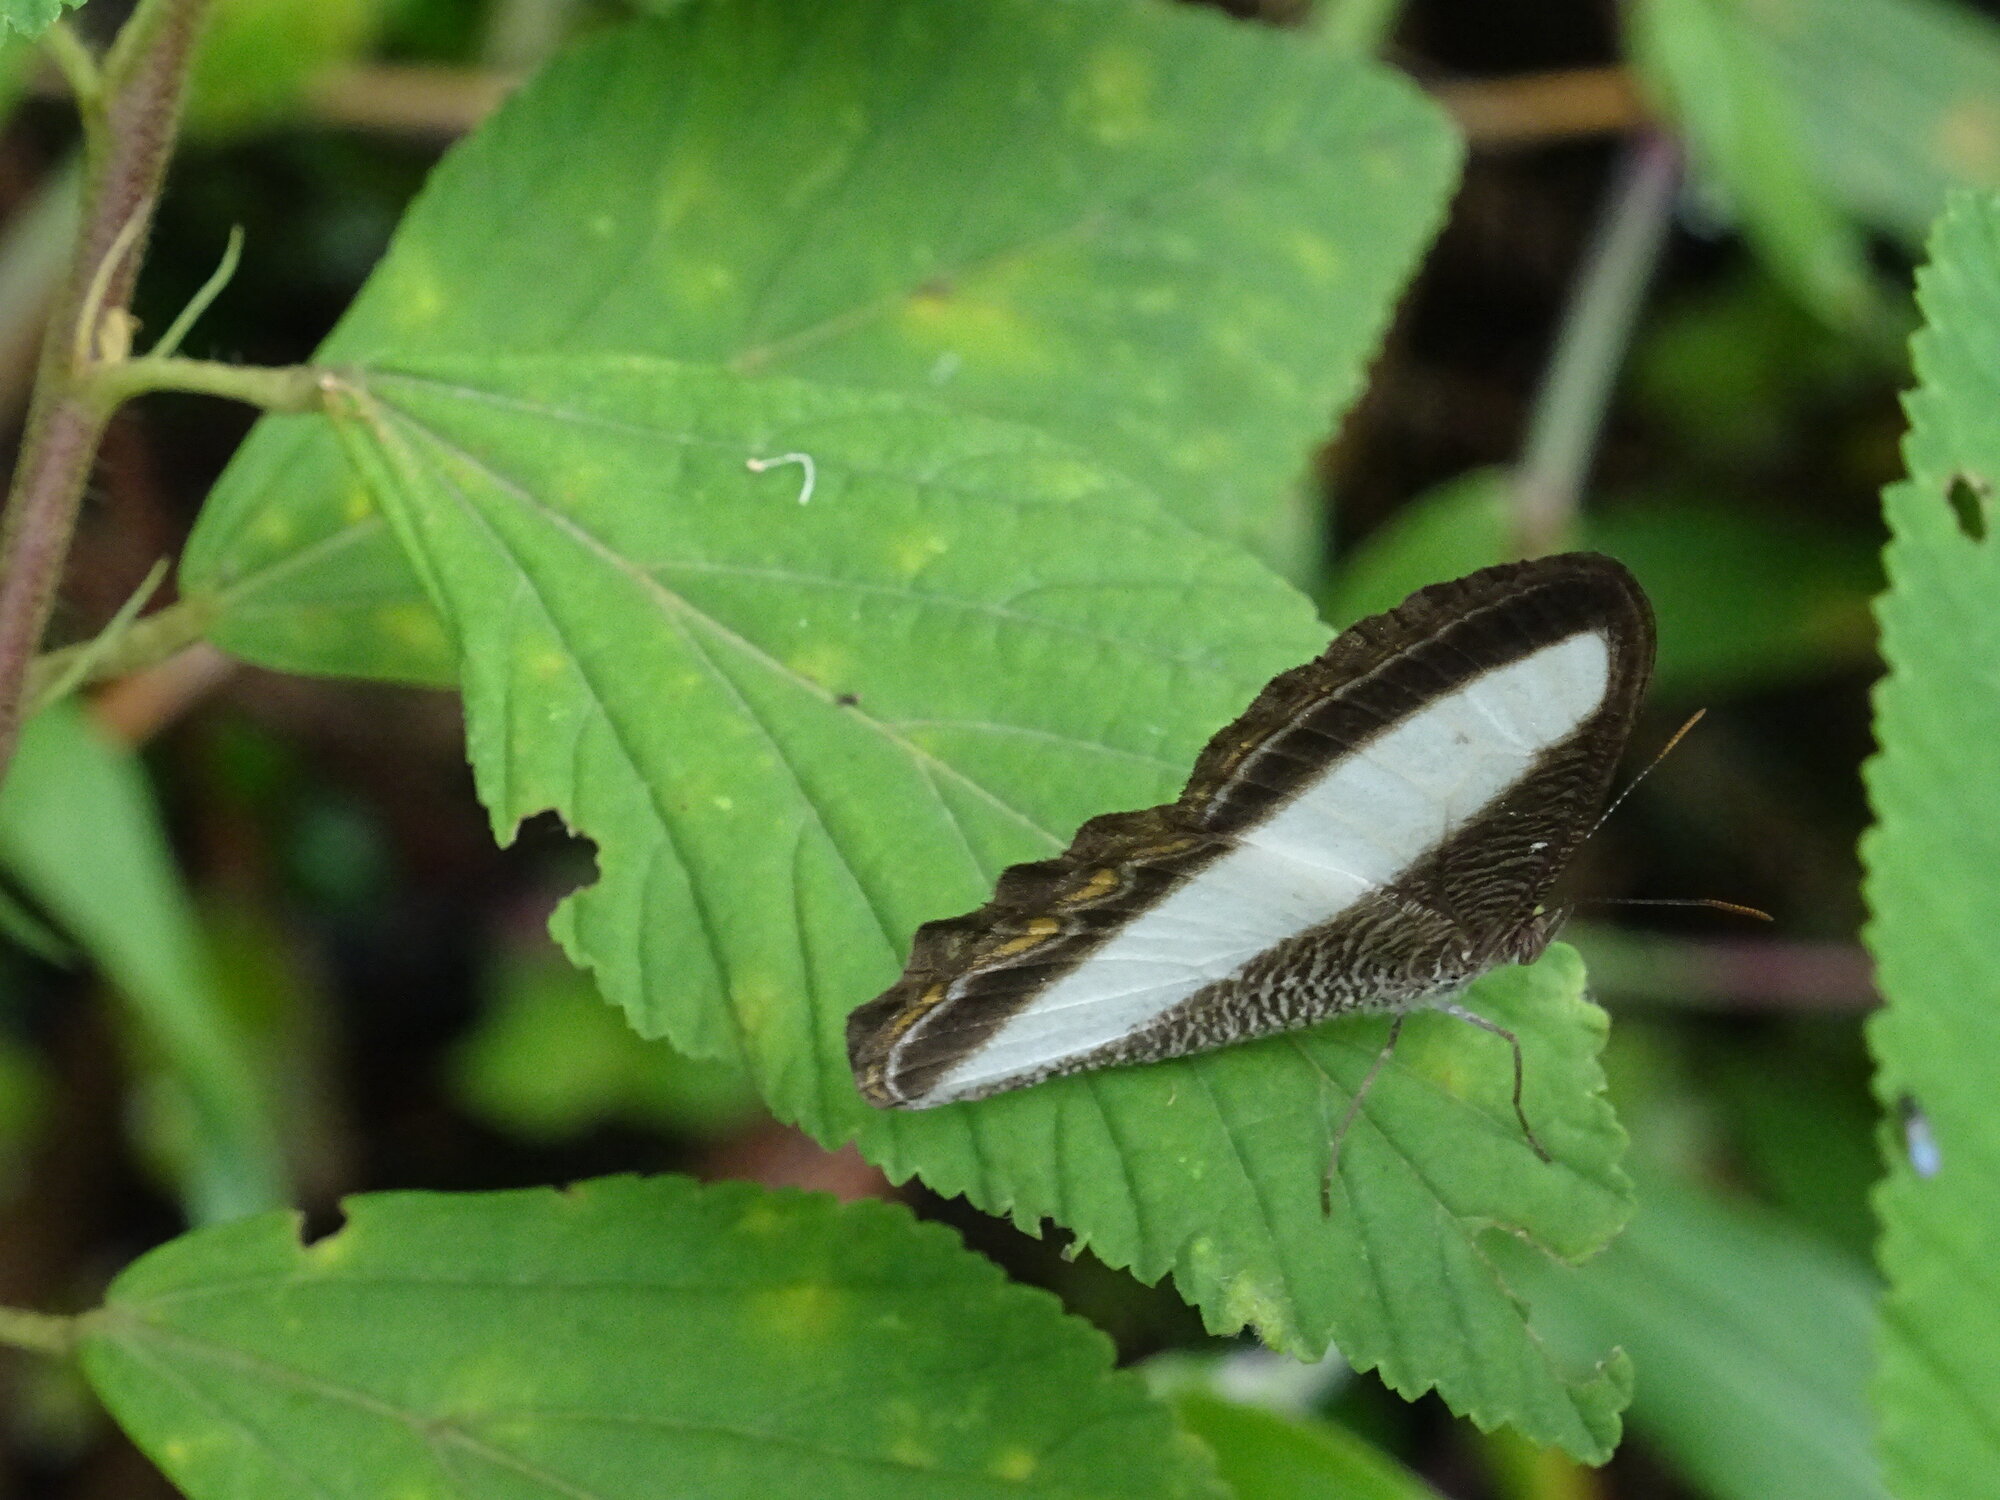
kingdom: Animalia
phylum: Arthropoda
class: Insecta
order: Lepidoptera
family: Nymphalidae
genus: Oressinoma
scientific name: Oressinoma typhla
